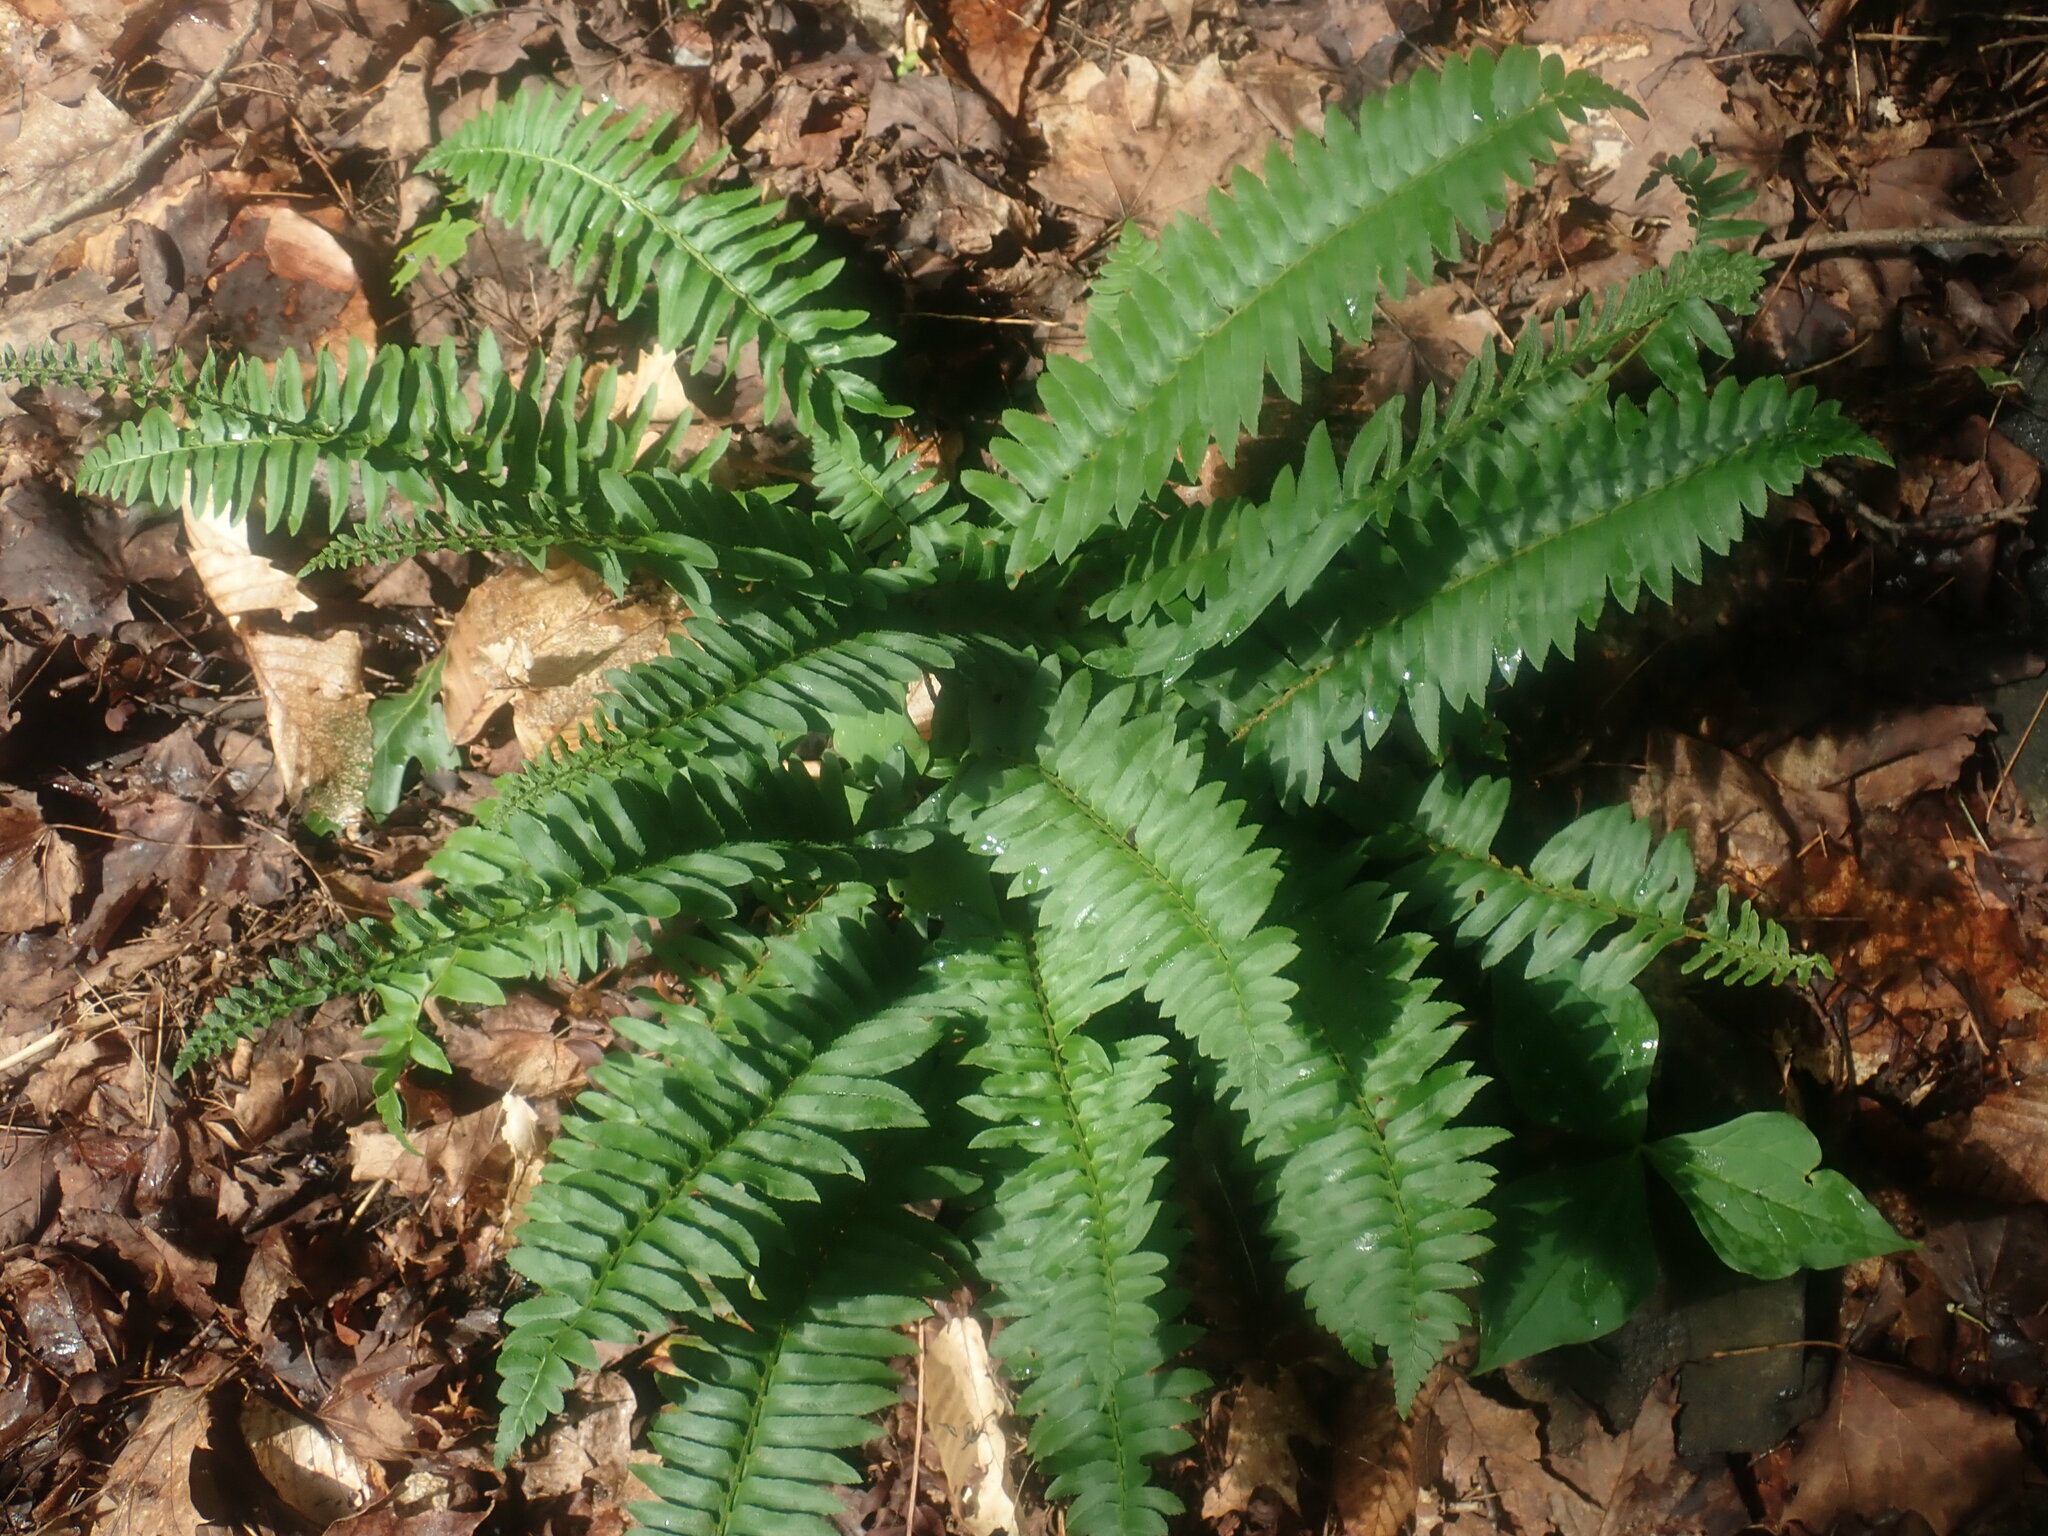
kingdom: Plantae
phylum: Tracheophyta
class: Polypodiopsida
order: Polypodiales
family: Dryopteridaceae
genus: Polystichum
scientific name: Polystichum acrostichoides
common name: Christmas fern
